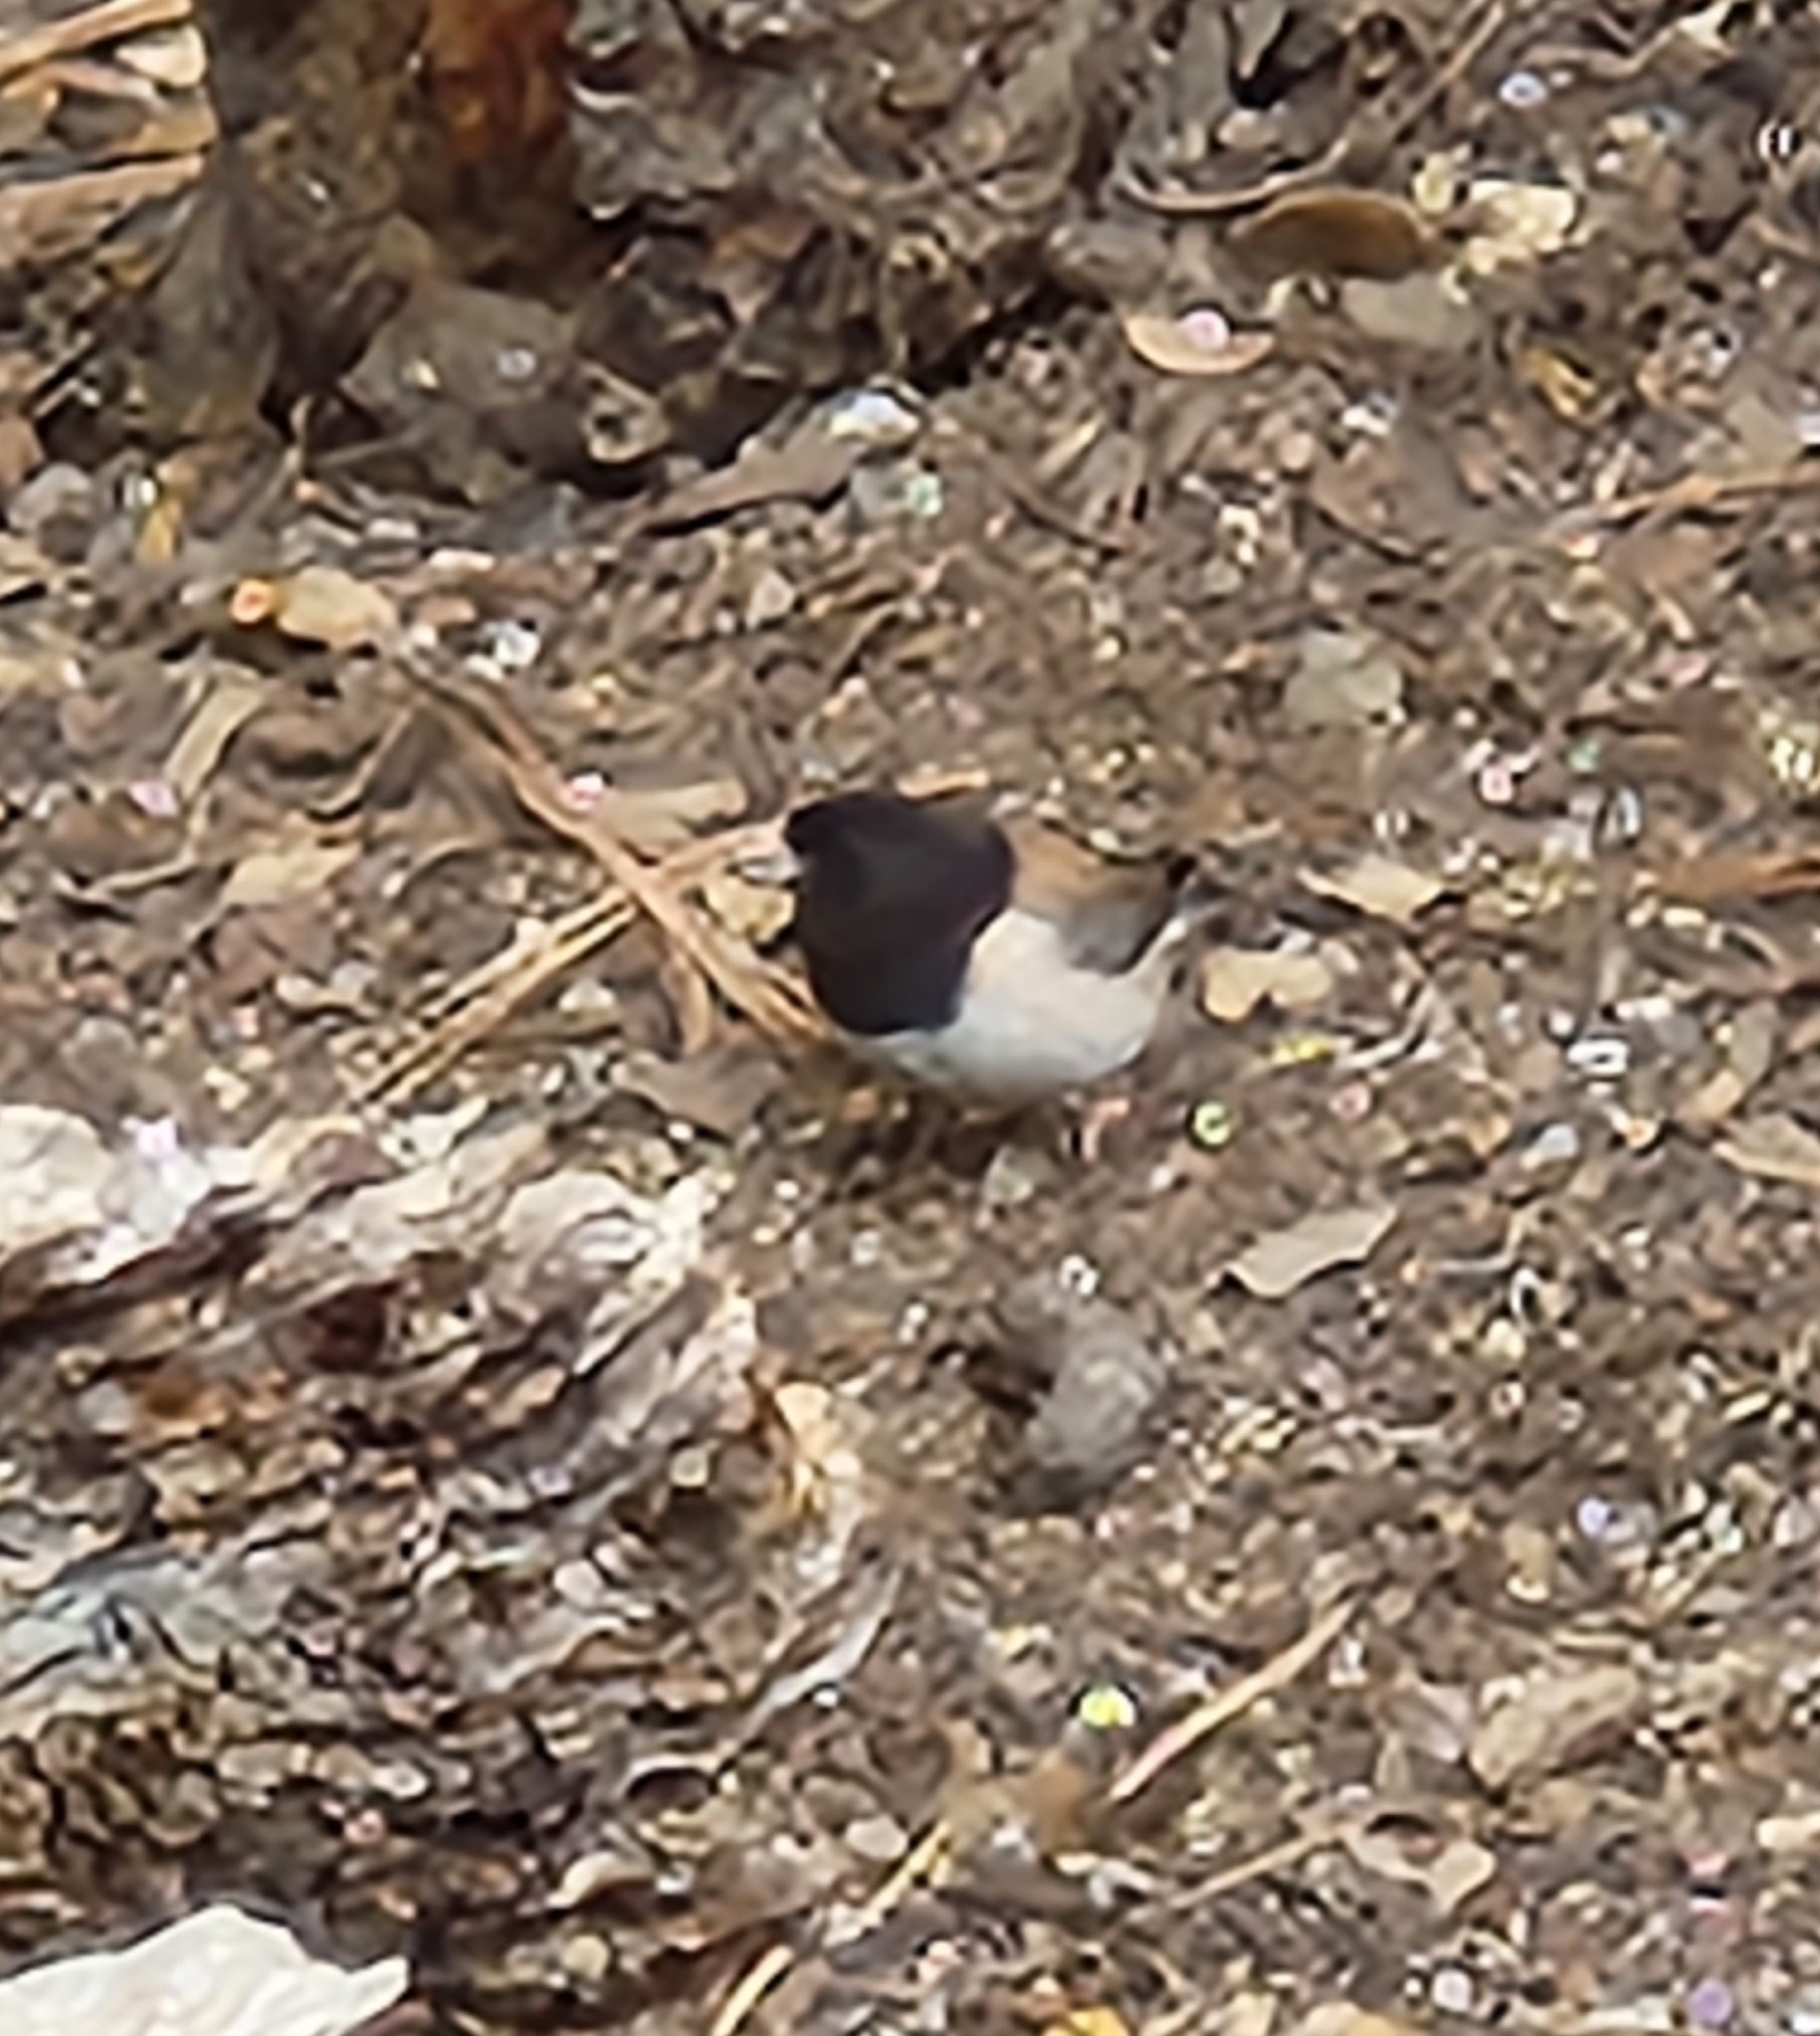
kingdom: Animalia
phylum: Chordata
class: Aves
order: Passeriformes
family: Passerellidae
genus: Junco
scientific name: Junco hyemalis
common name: Dark-eyed junco
